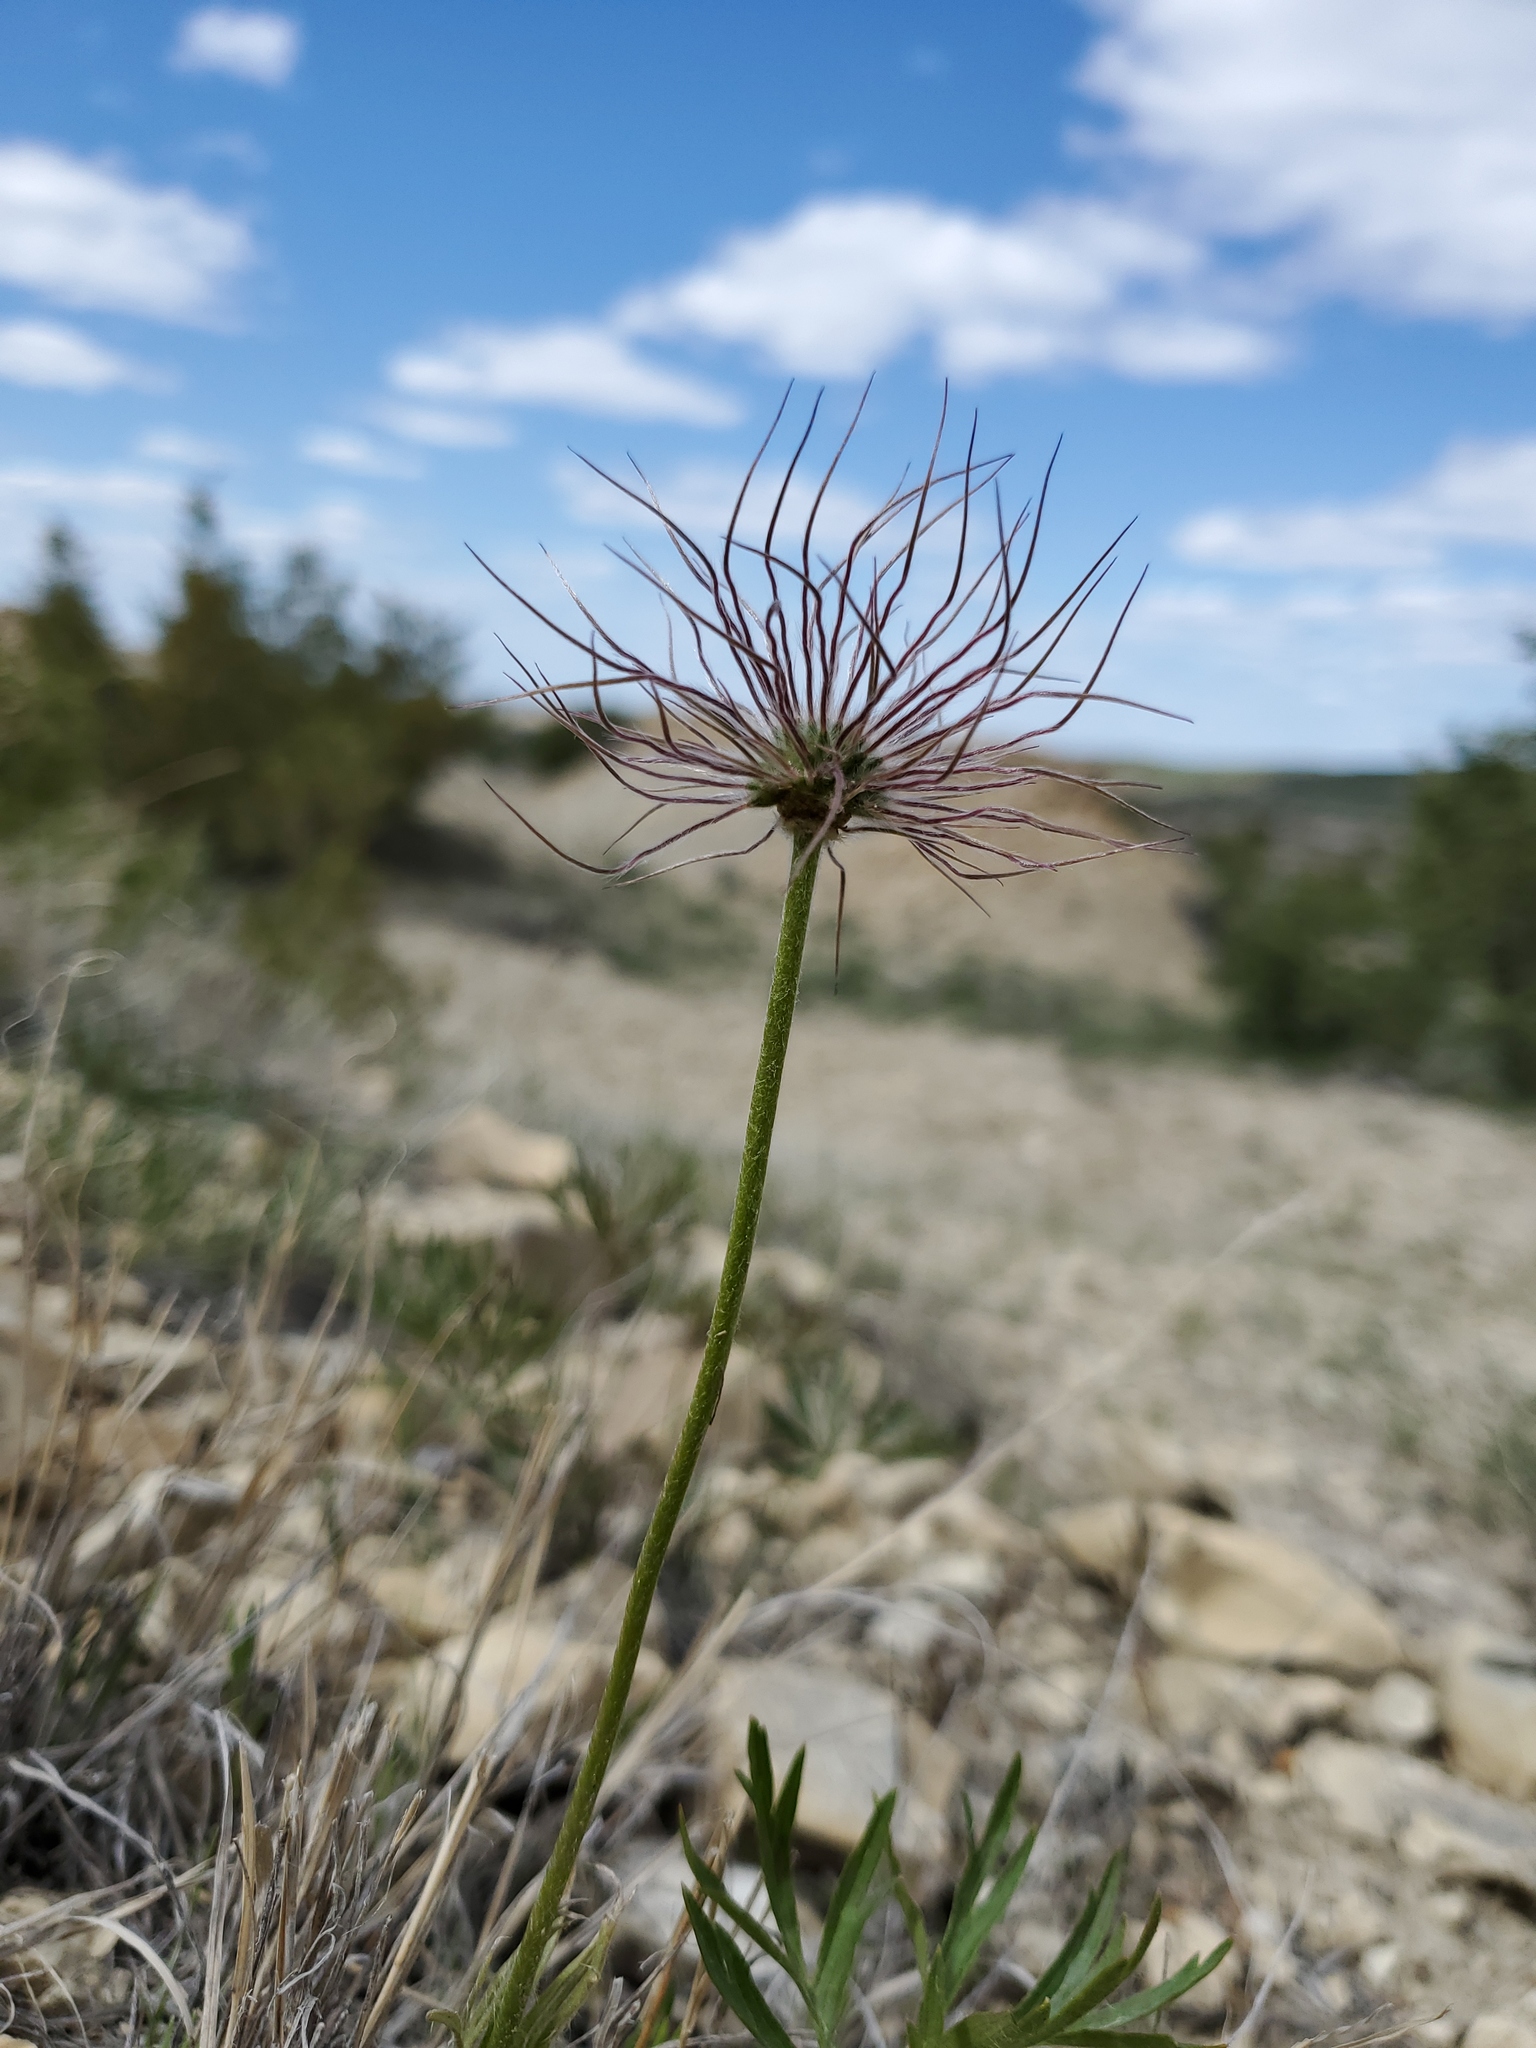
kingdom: Plantae
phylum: Tracheophyta
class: Magnoliopsida
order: Ranunculales
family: Ranunculaceae
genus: Pulsatilla
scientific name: Pulsatilla nuttalliana
